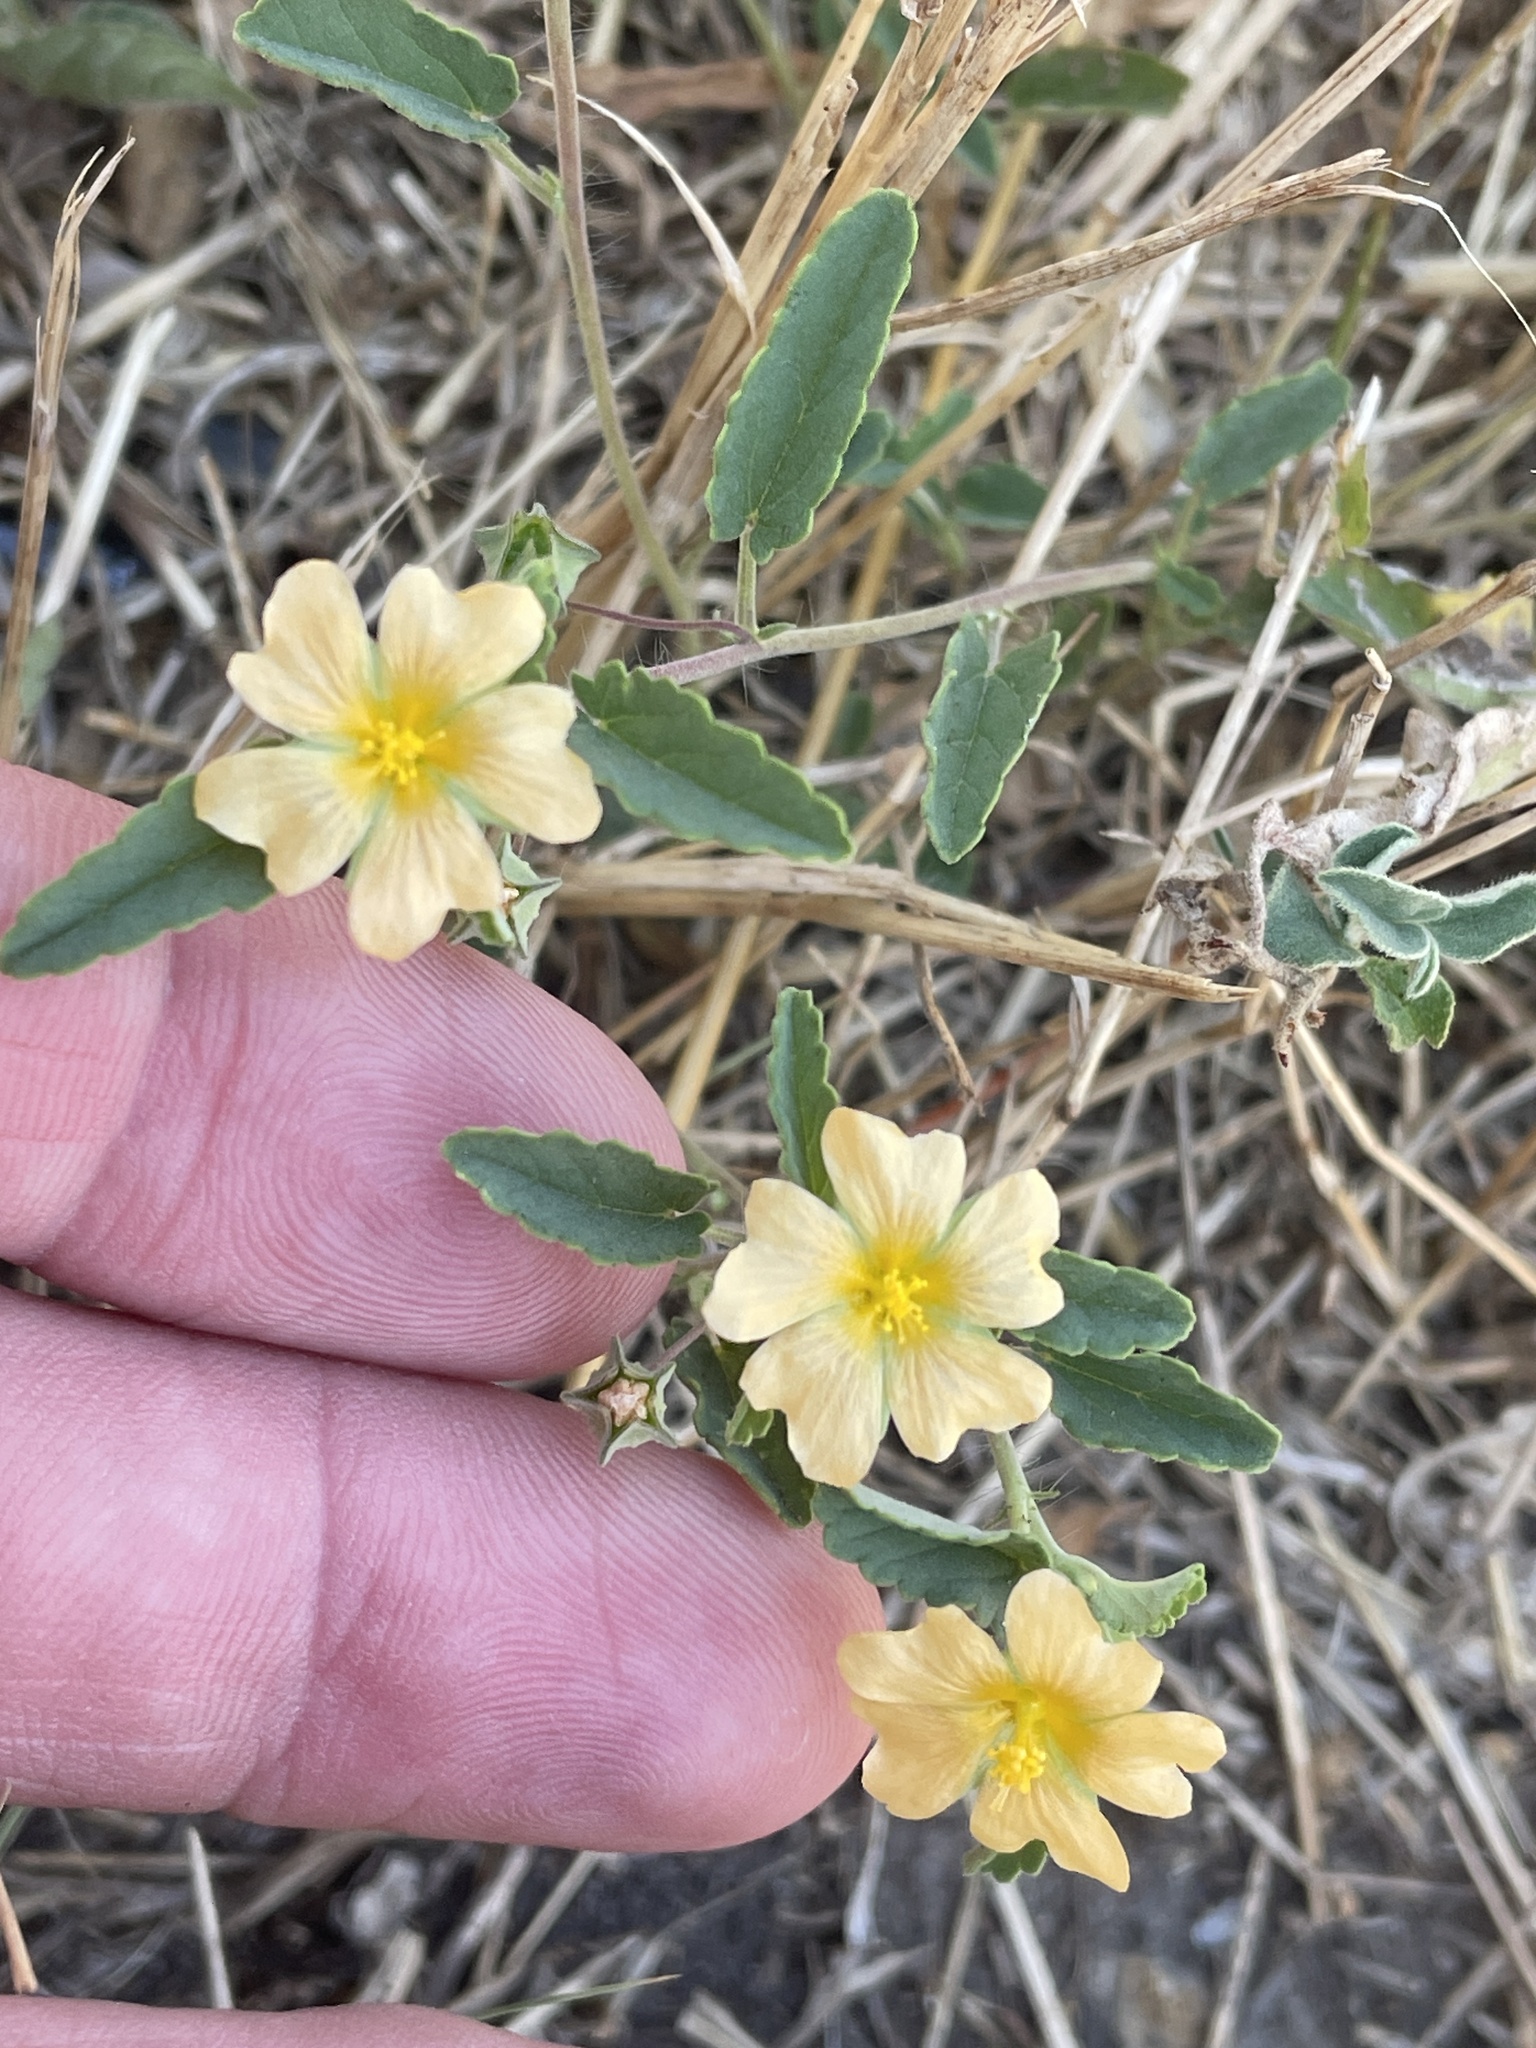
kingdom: Plantae
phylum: Tracheophyta
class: Magnoliopsida
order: Malvales
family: Malvaceae
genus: Sida
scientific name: Sida abutilifolia
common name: Spreading fanpetals
